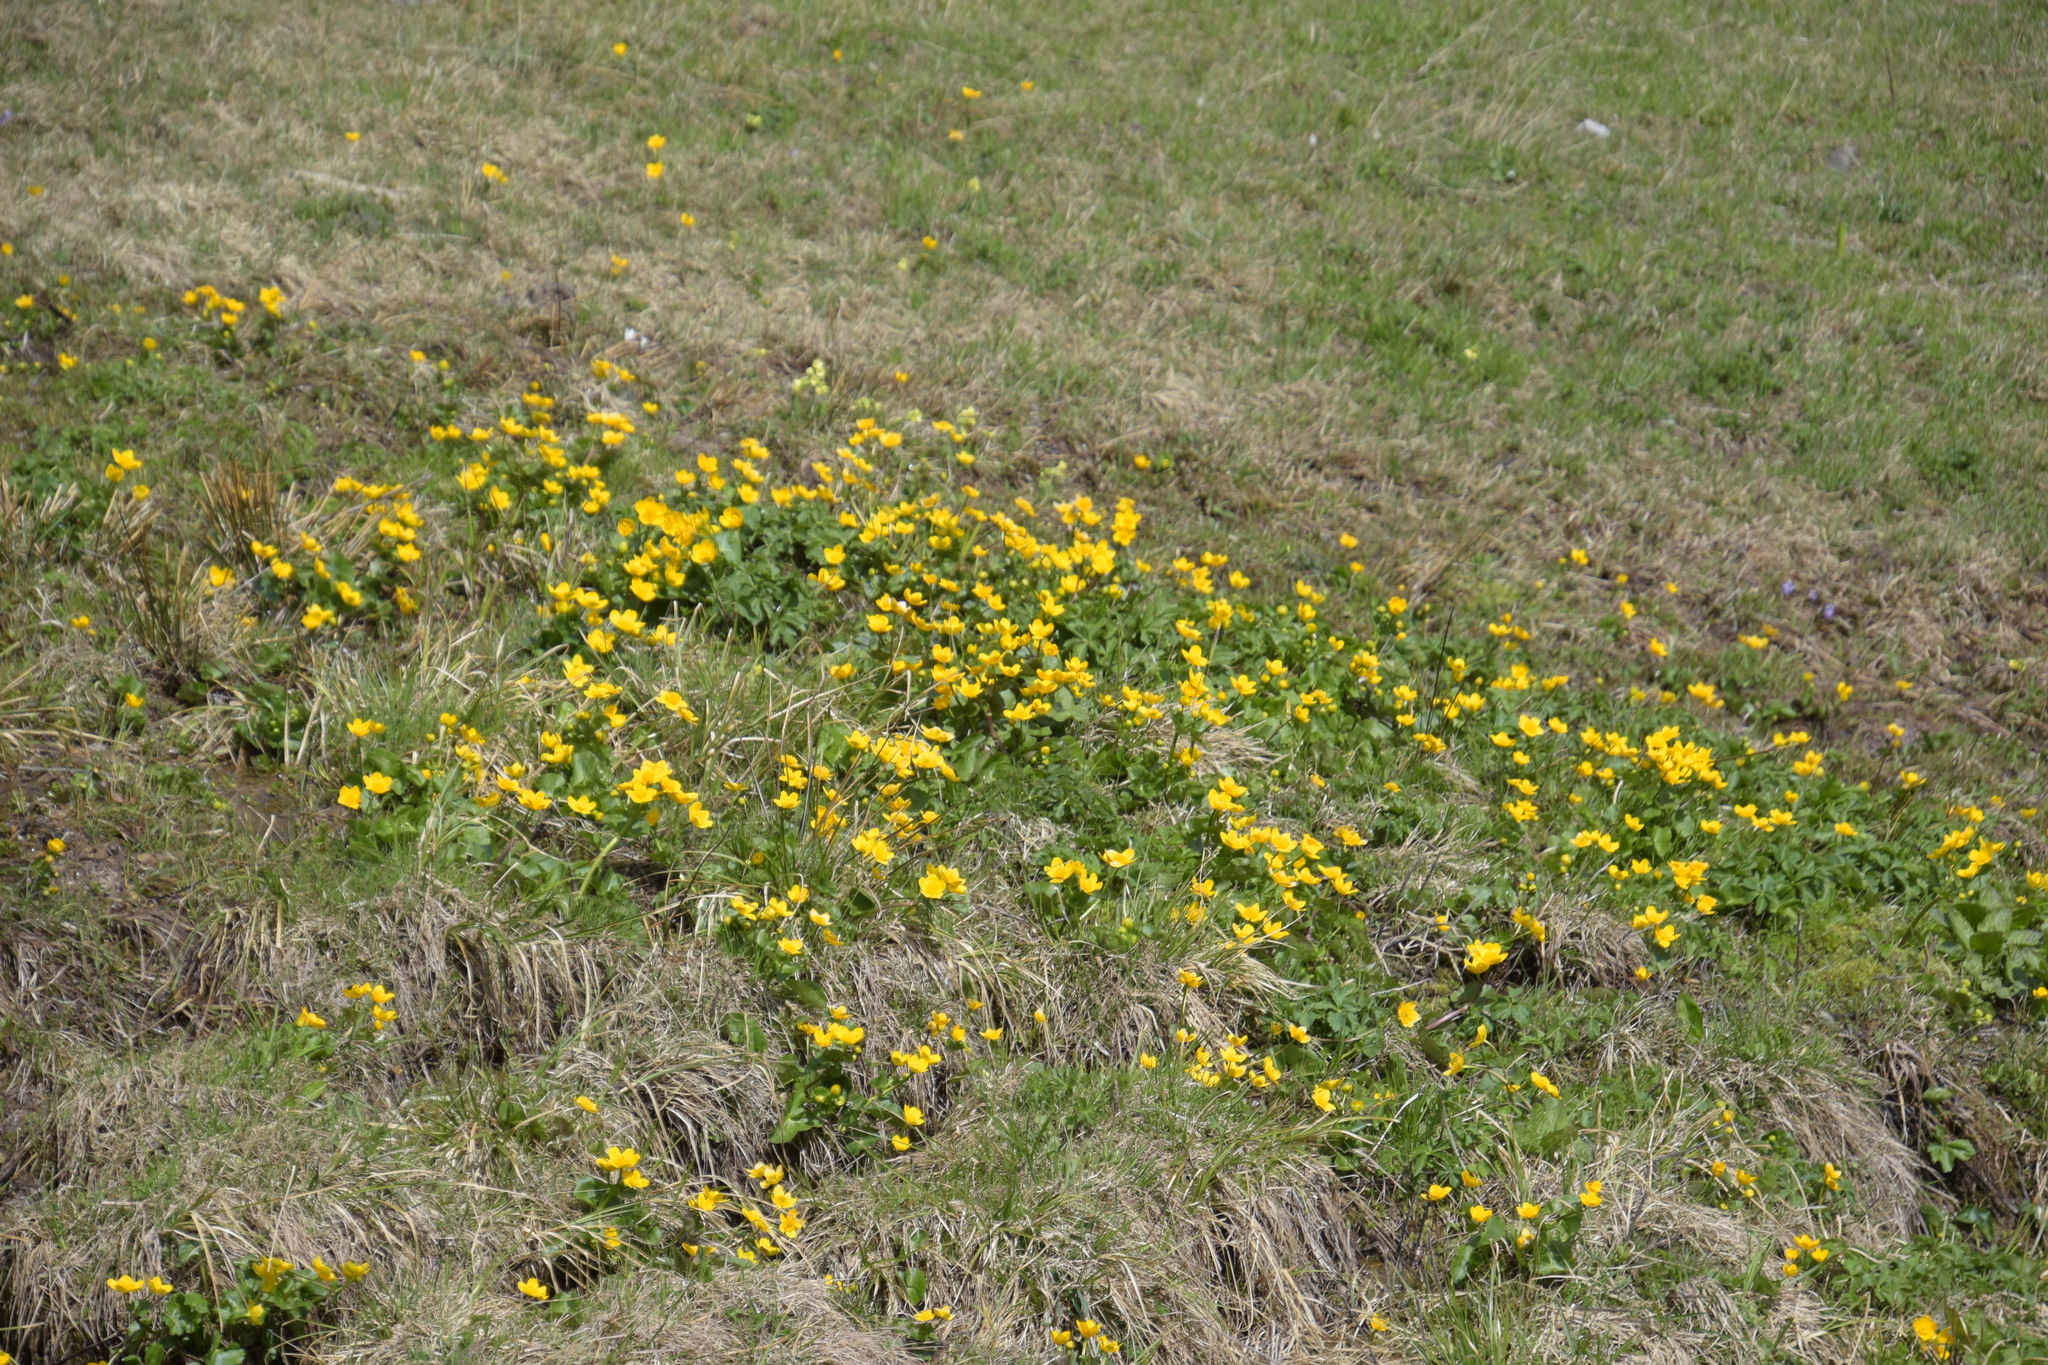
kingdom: Plantae
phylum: Tracheophyta
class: Magnoliopsida
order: Ranunculales
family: Ranunculaceae
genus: Caltha
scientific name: Caltha palustris
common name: Marsh marigold
